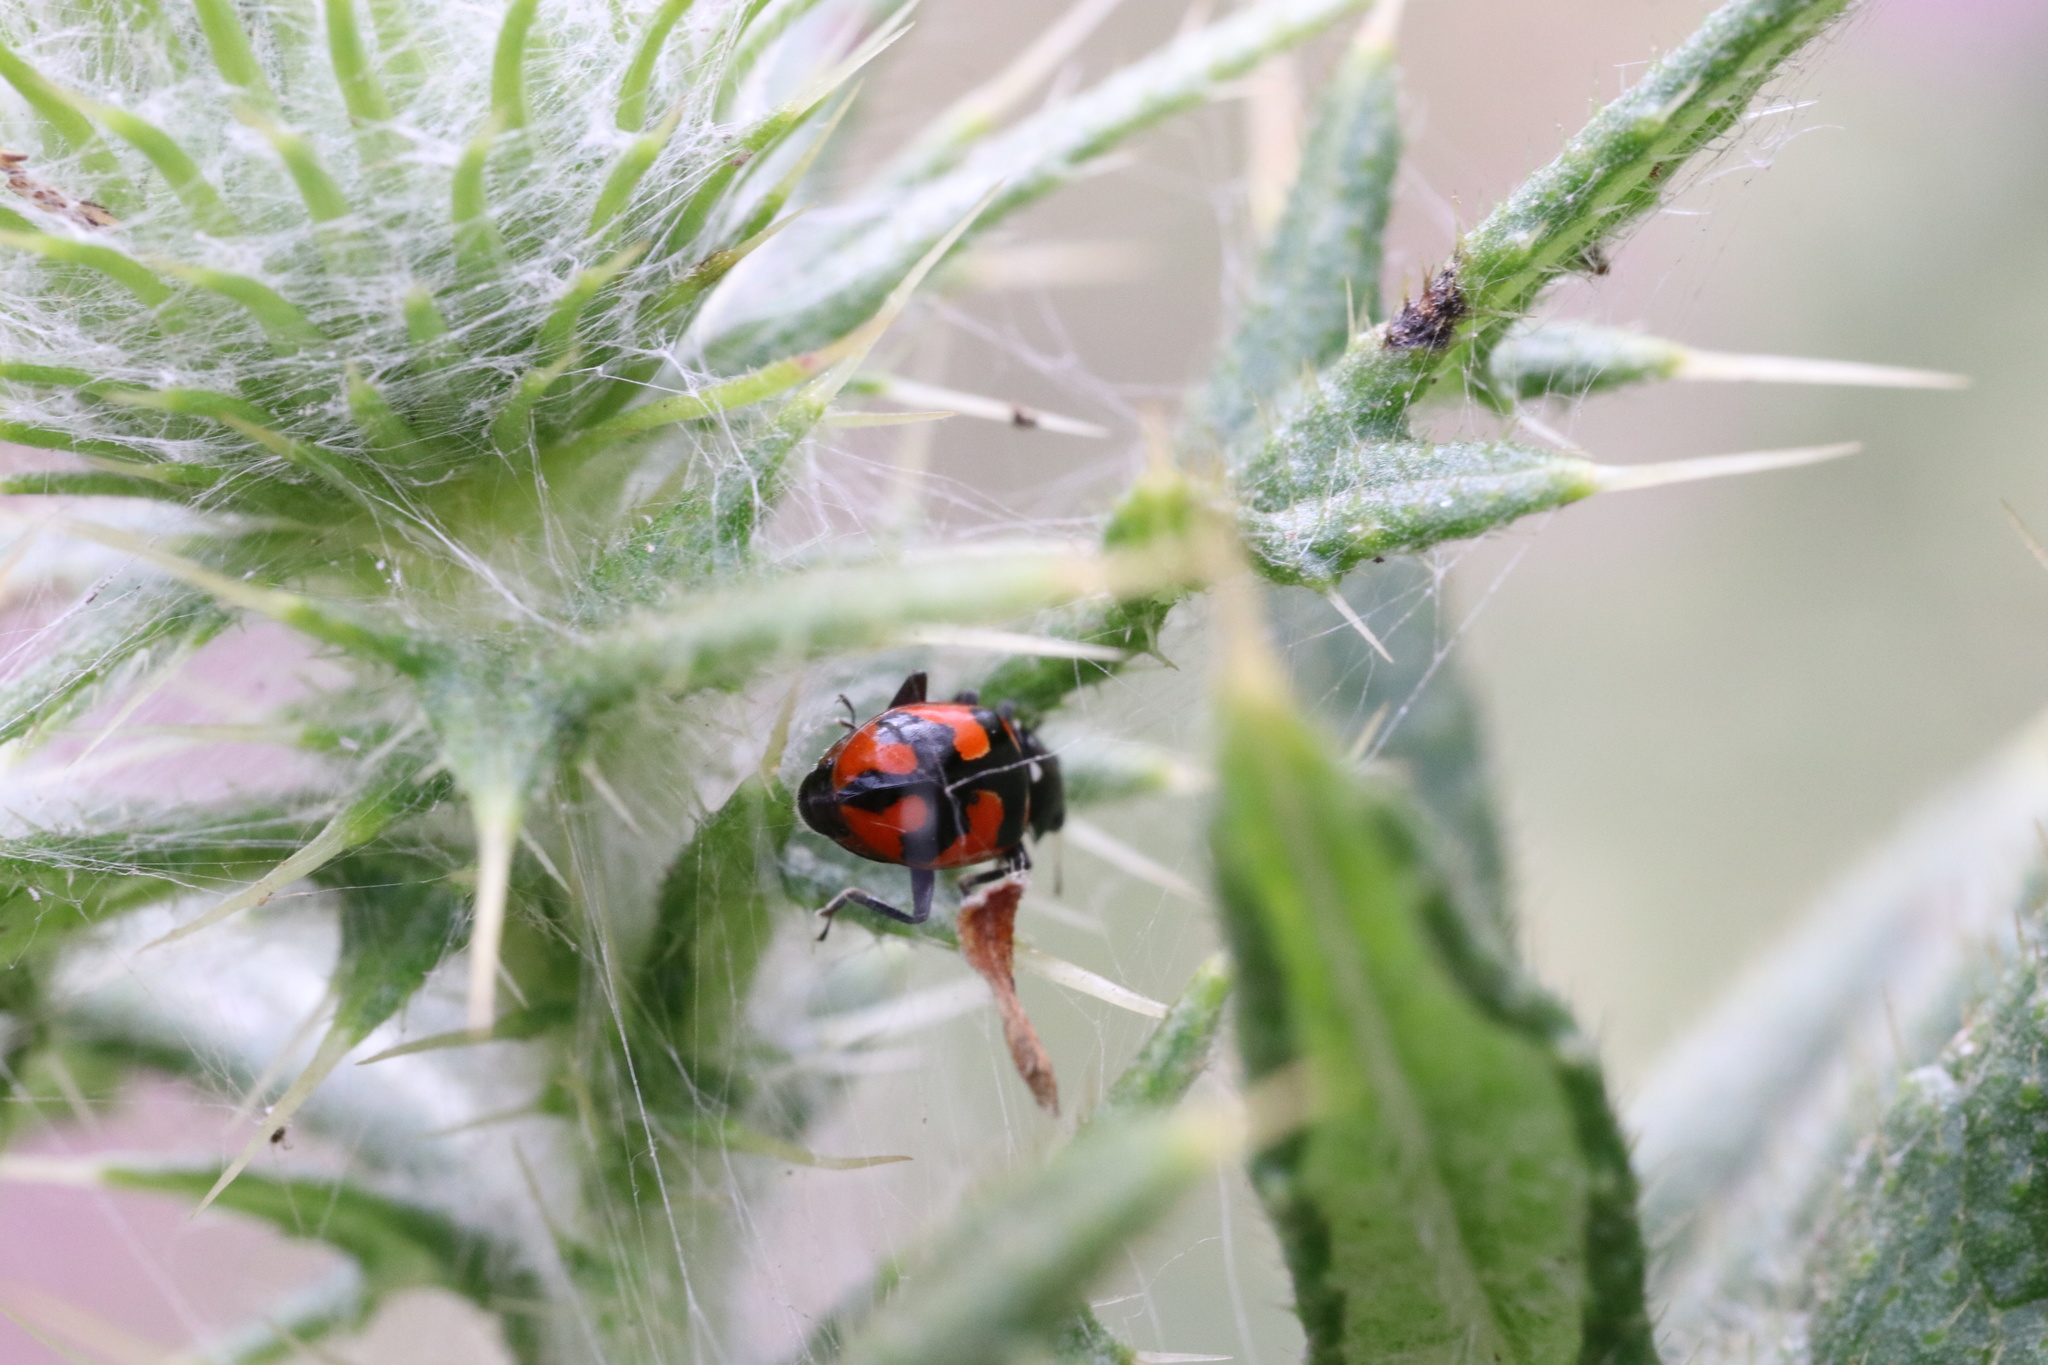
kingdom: Animalia
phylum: Arthropoda
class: Insecta
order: Coleoptera
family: Coccinellidae
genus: Eriopis
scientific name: Eriopis eschscholtzii
